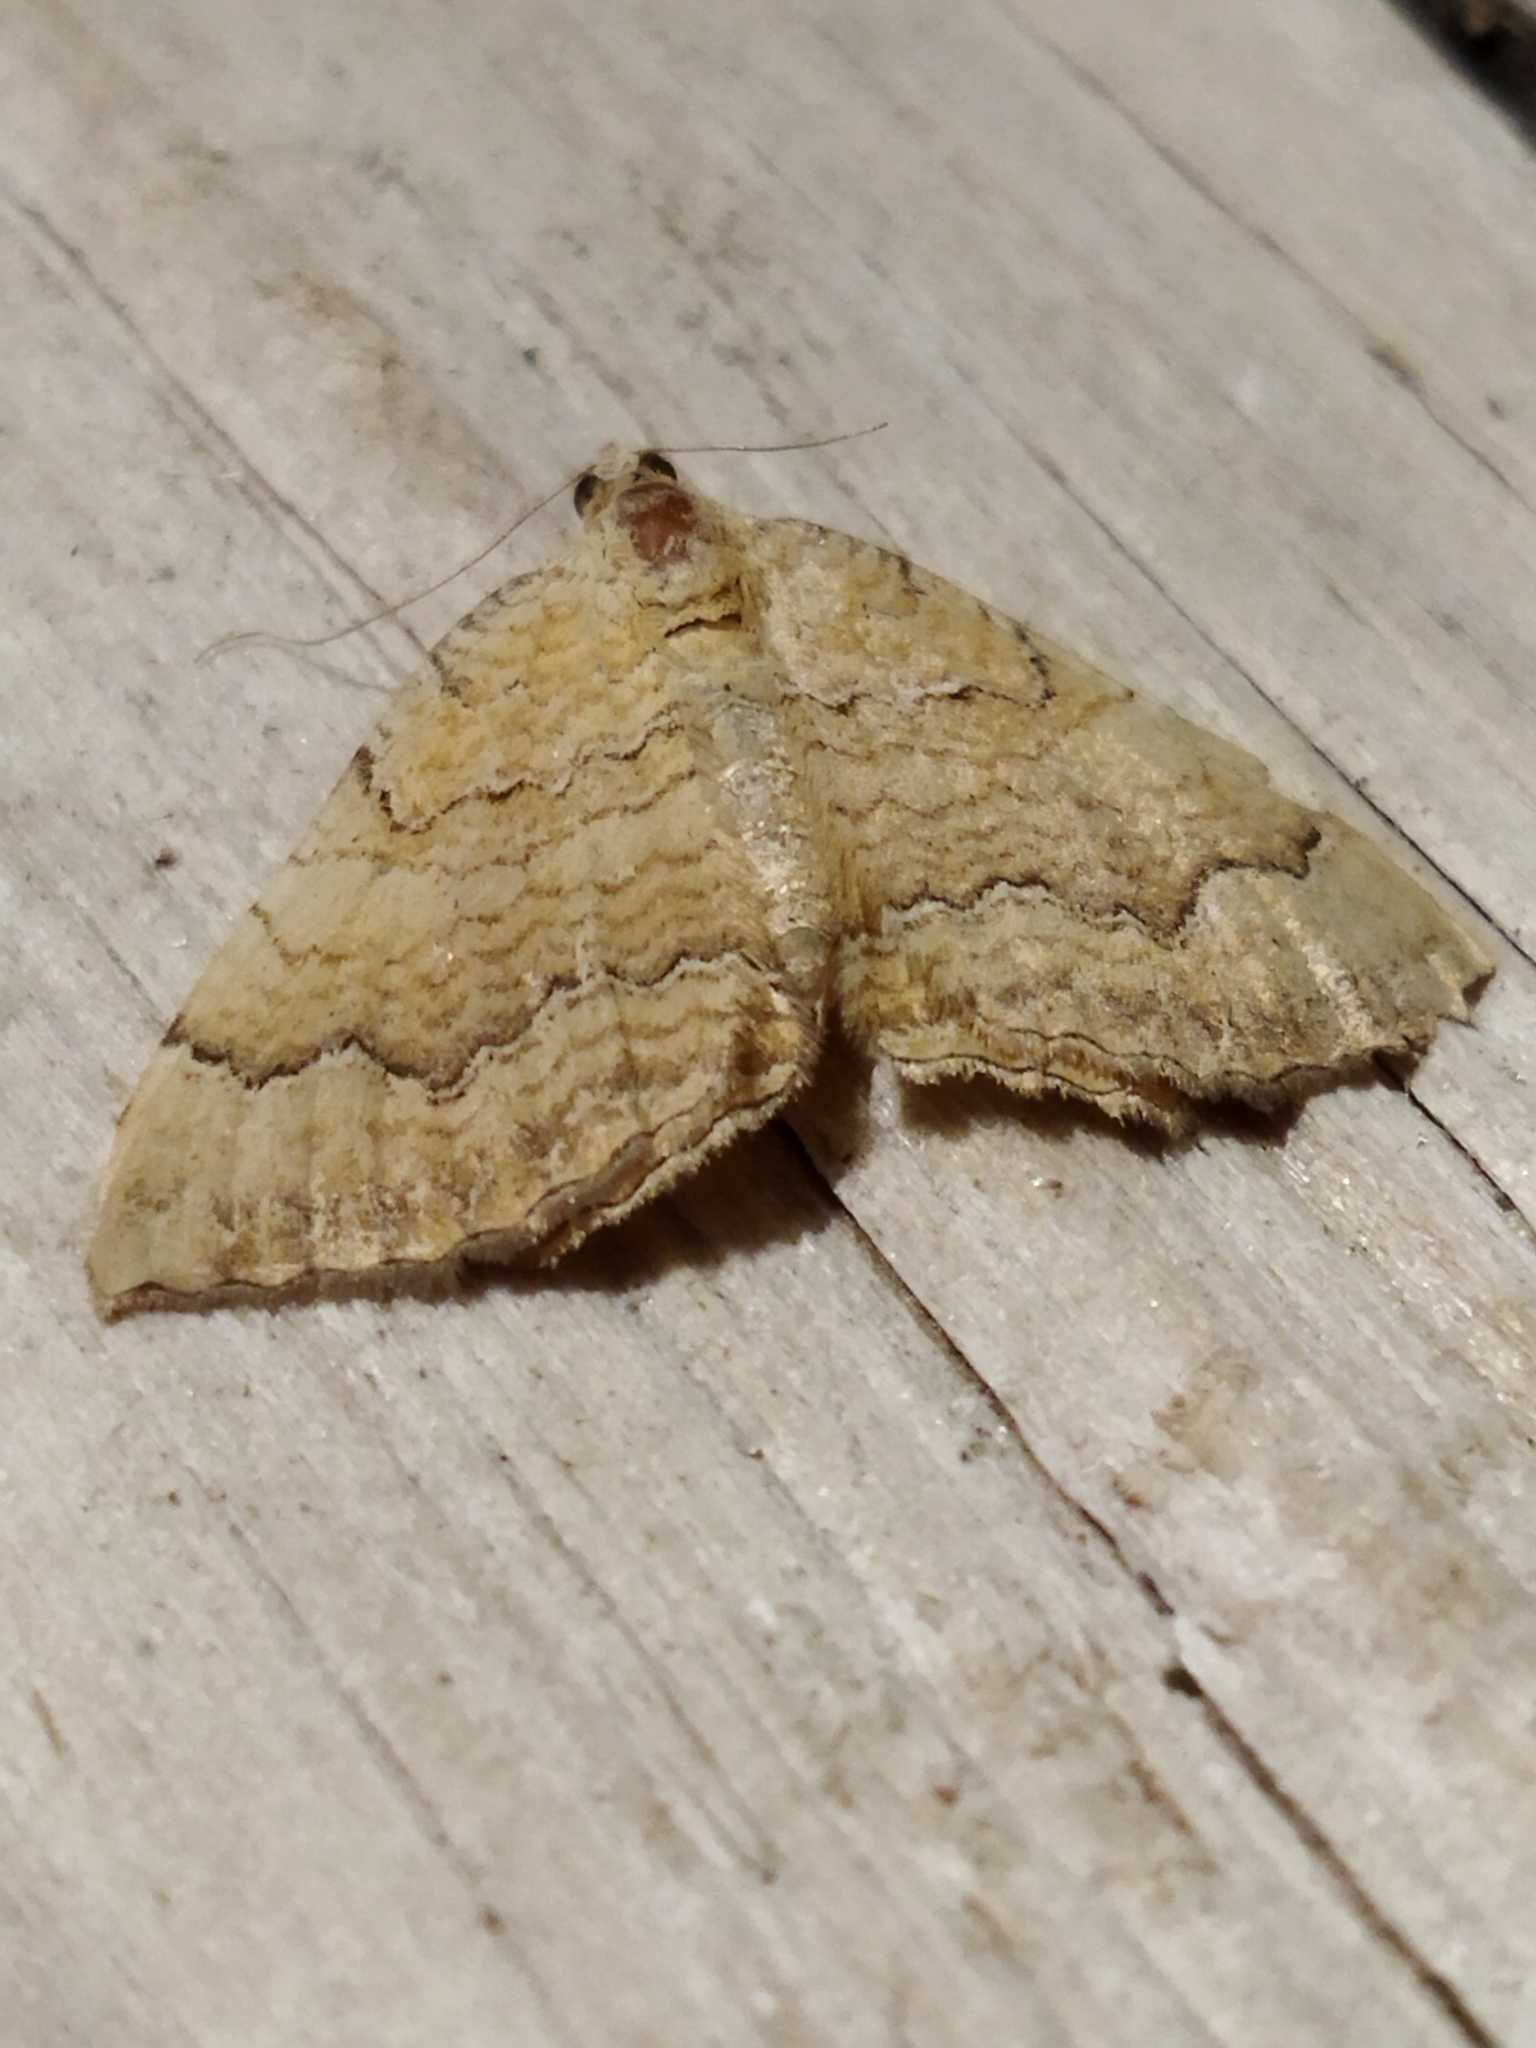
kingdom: Animalia
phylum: Arthropoda
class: Insecta
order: Lepidoptera
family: Geometridae
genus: Camptogramma
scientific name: Camptogramma bilineata
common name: Yellow shell
